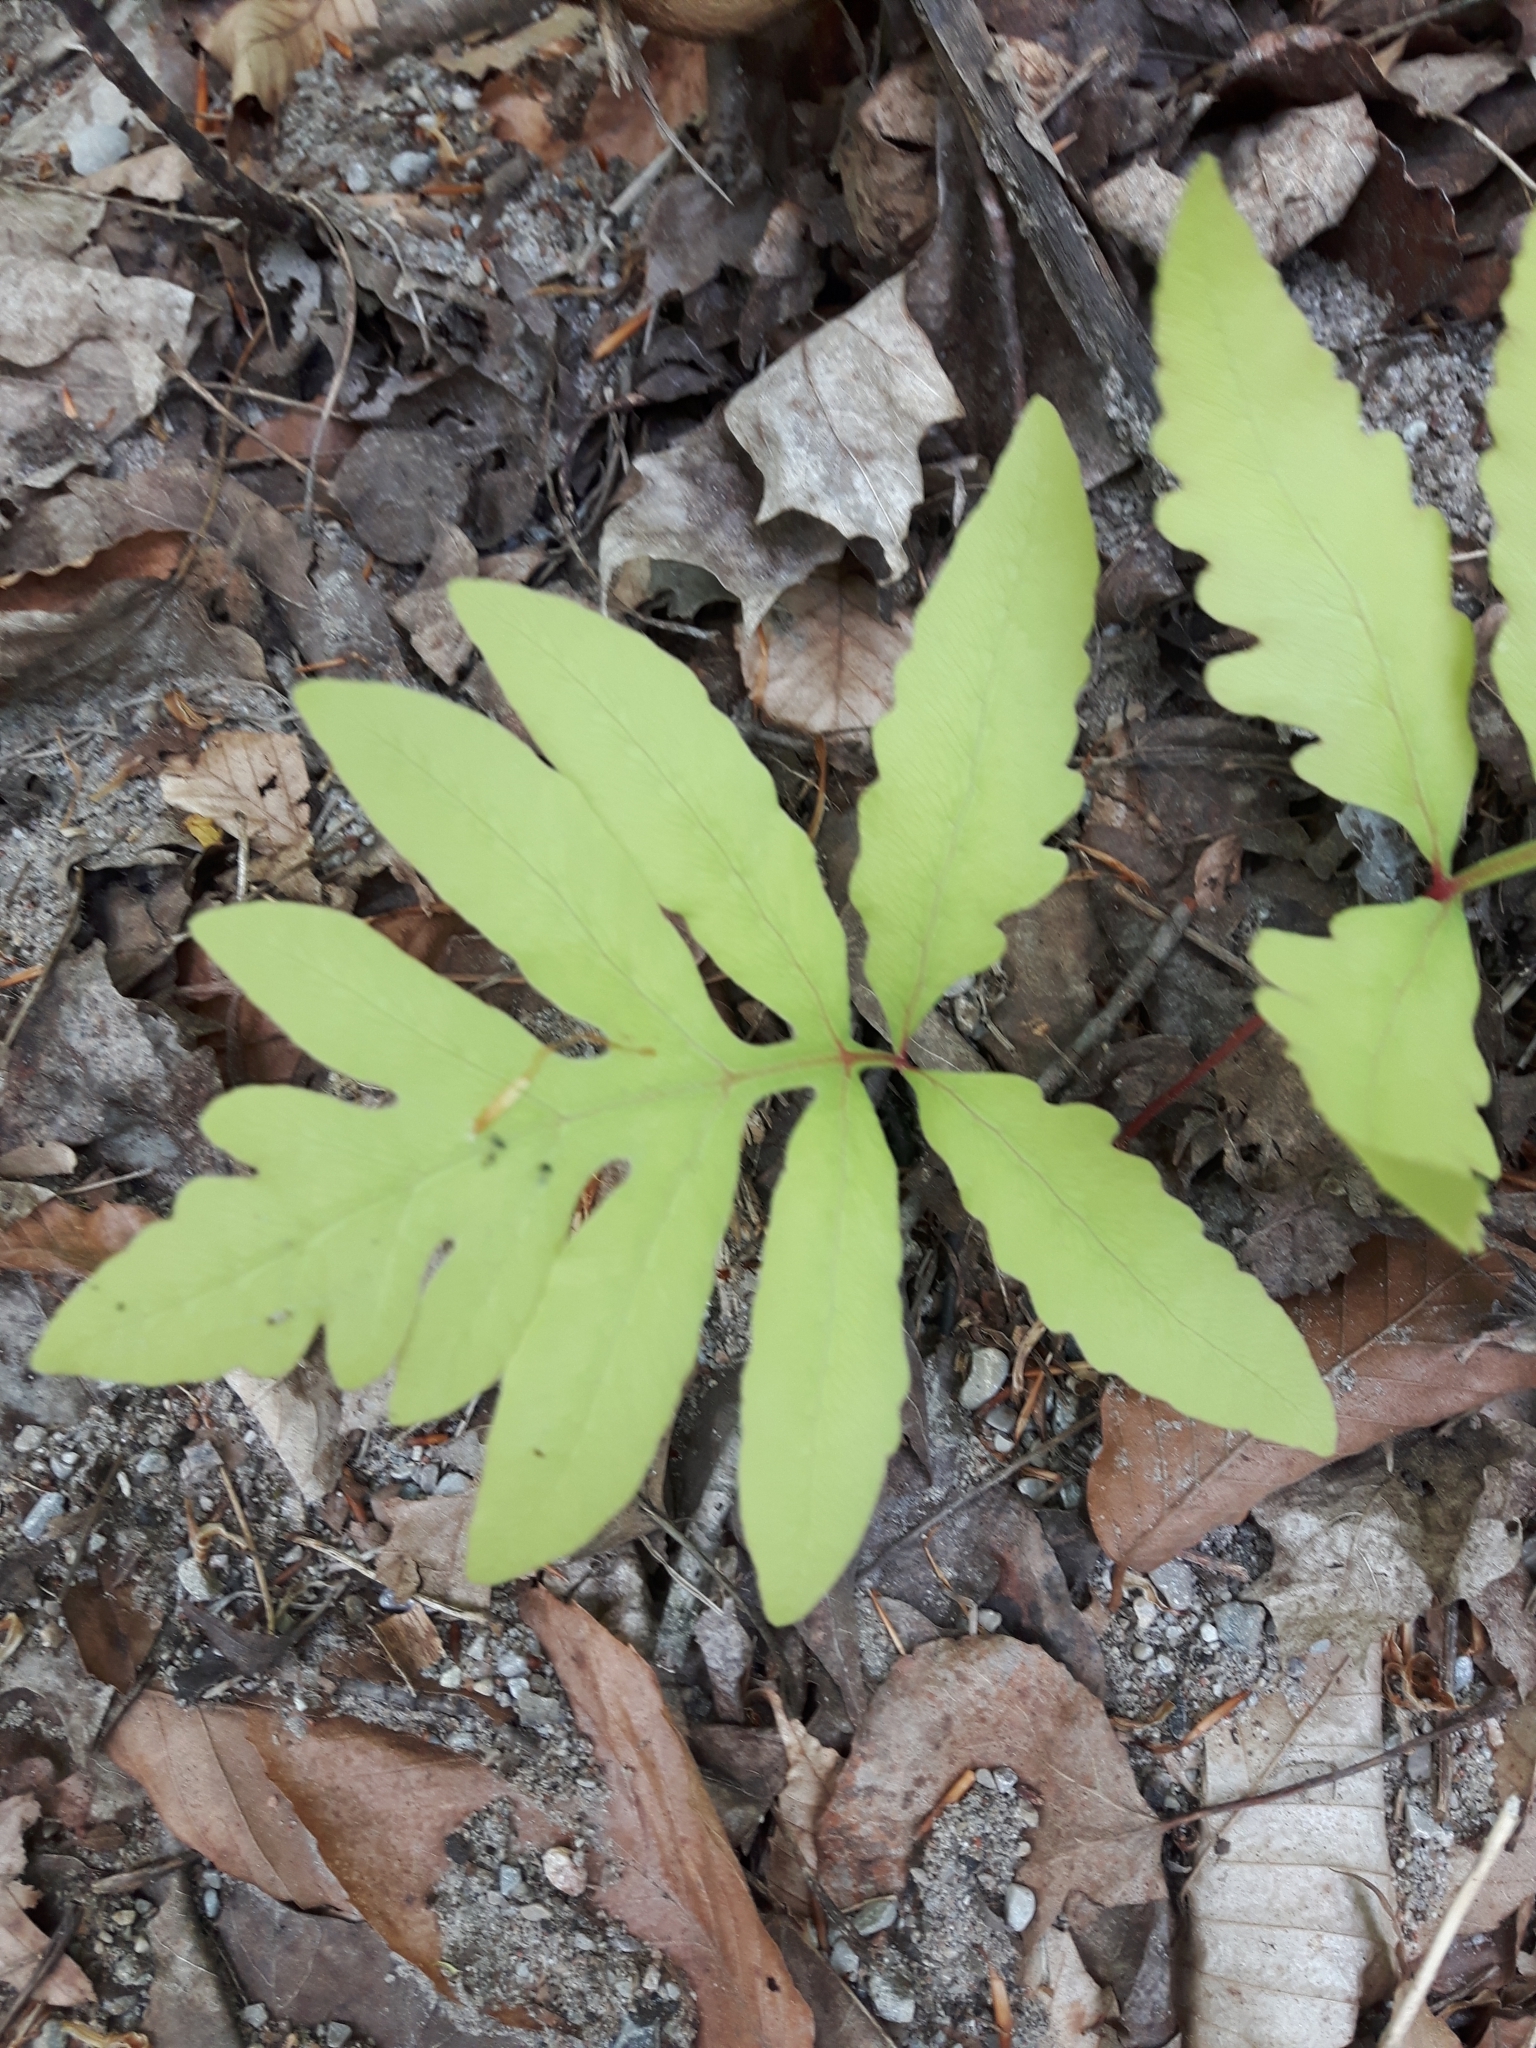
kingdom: Plantae
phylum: Tracheophyta
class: Polypodiopsida
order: Polypodiales
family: Onocleaceae
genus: Onoclea
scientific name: Onoclea sensibilis
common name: Sensitive fern
